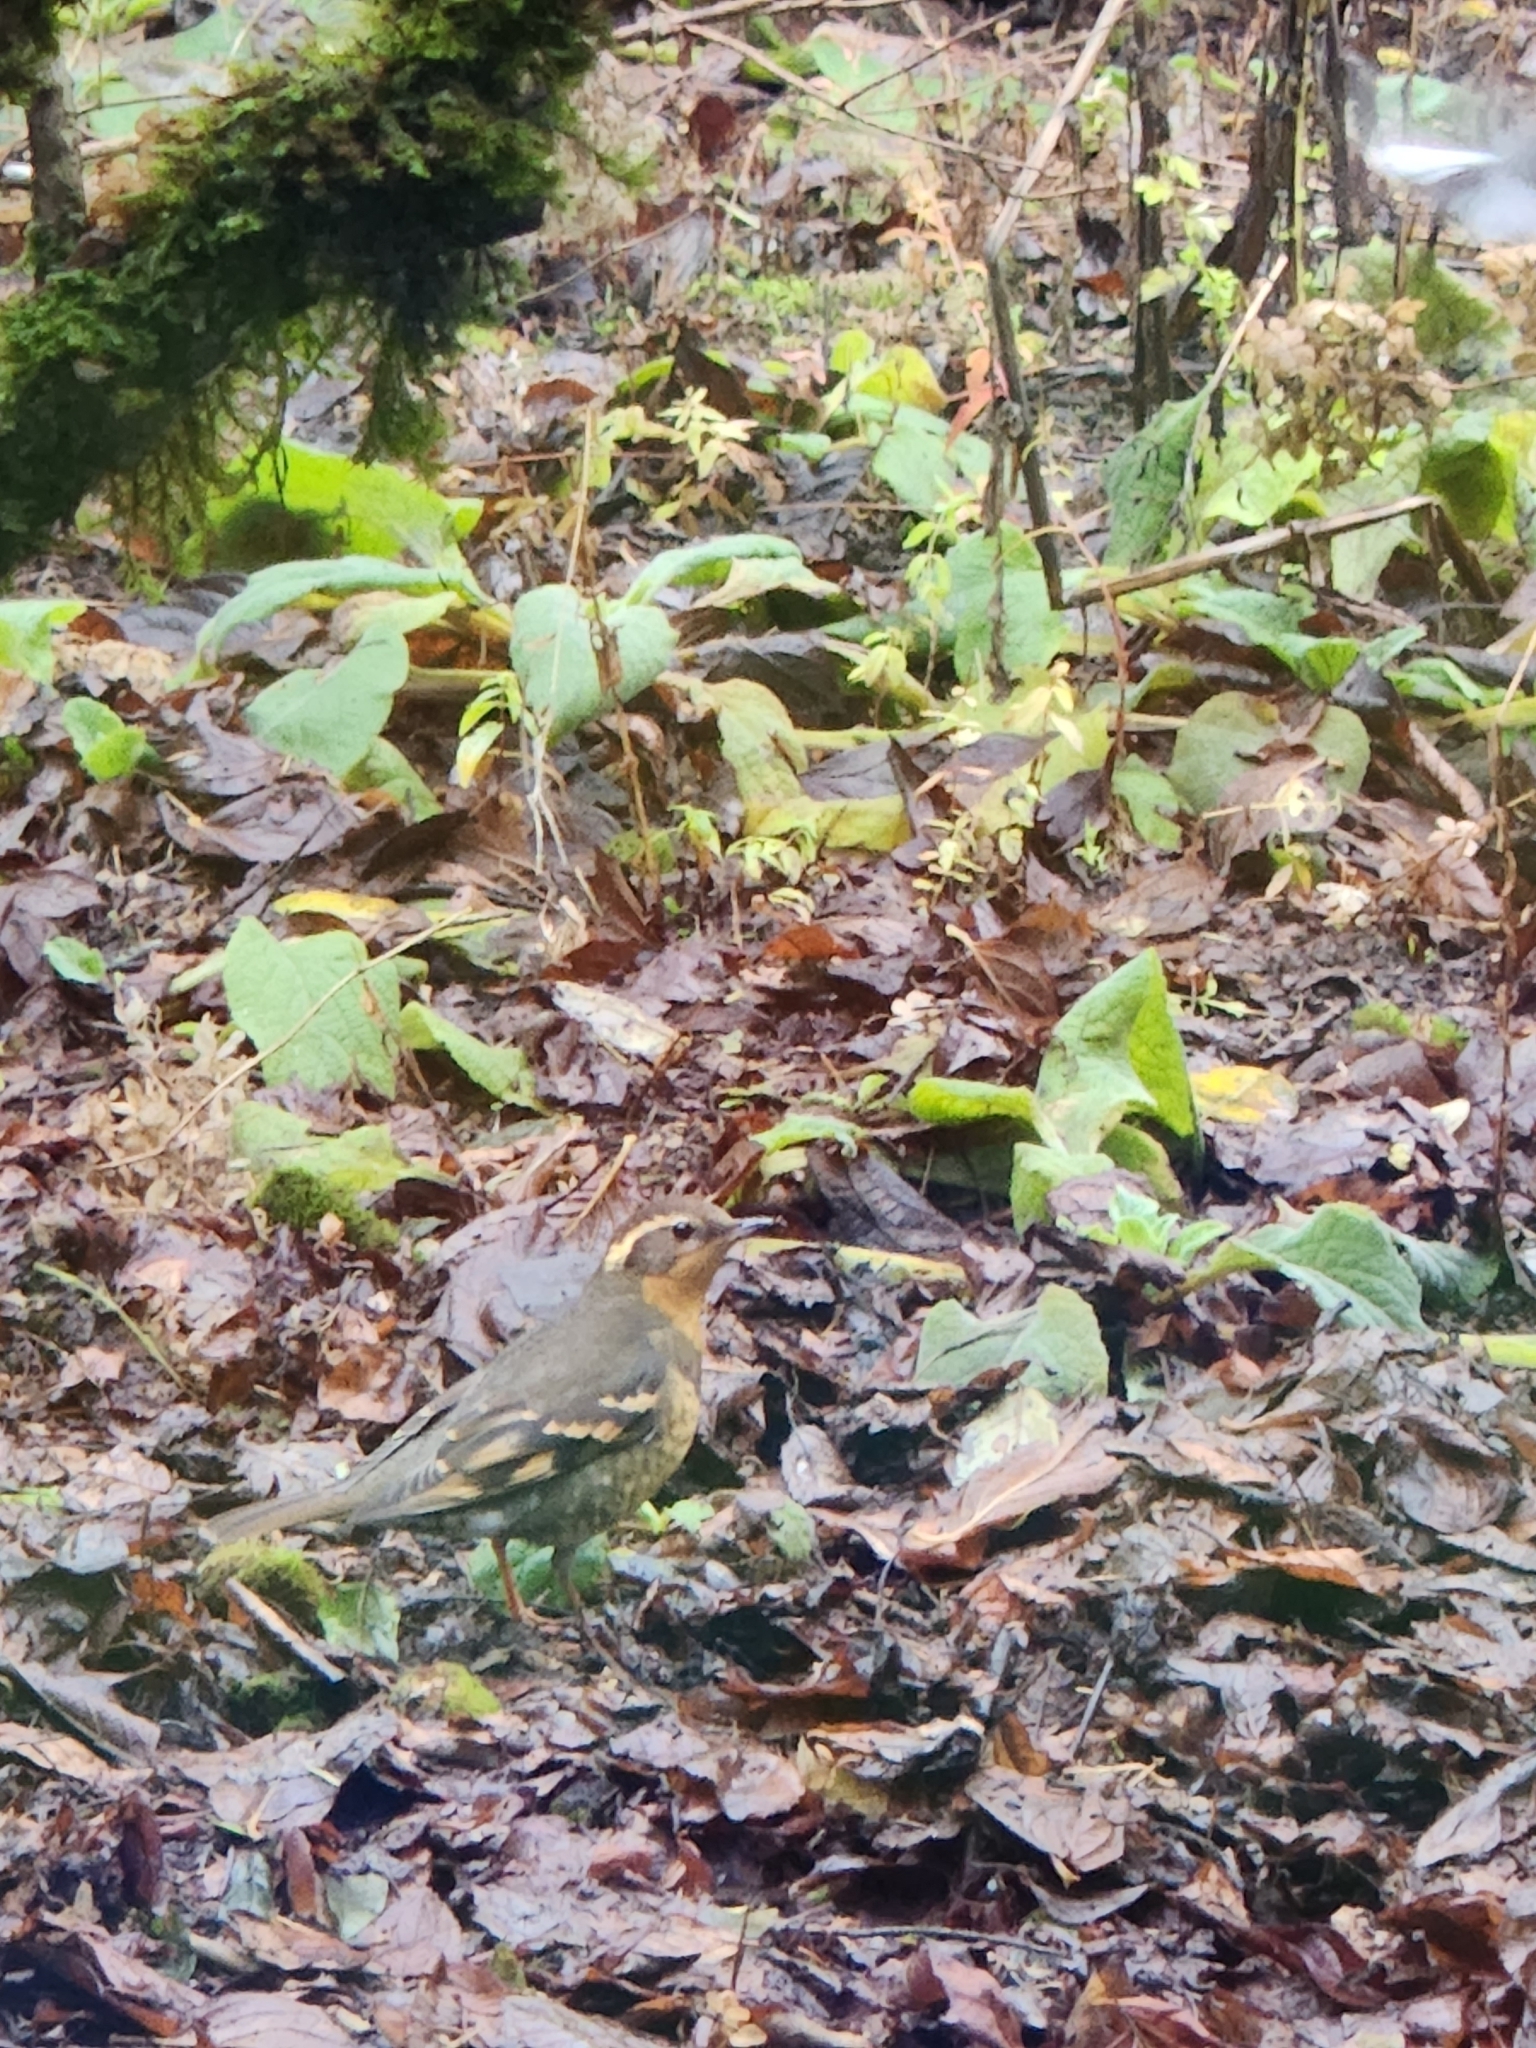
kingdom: Animalia
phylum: Chordata
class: Aves
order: Passeriformes
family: Turdidae
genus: Ixoreus
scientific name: Ixoreus naevius
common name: Varied thrush
